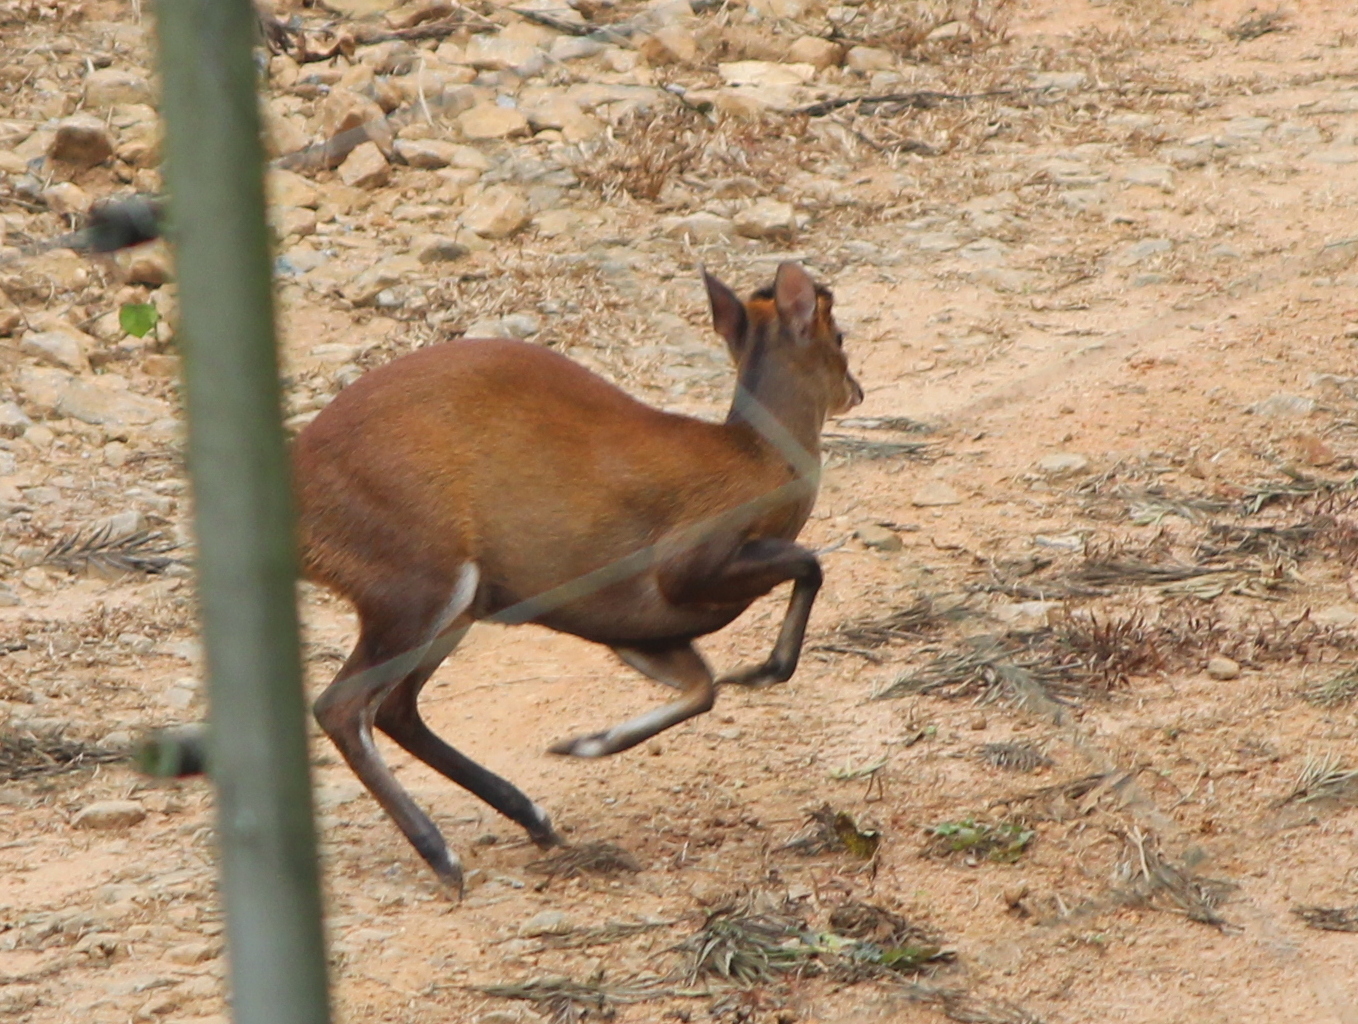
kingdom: Animalia
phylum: Chordata
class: Mammalia
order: Artiodactyla
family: Cervidae
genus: Muntiacus
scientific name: Muntiacus muntjak
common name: Indian muntjac
